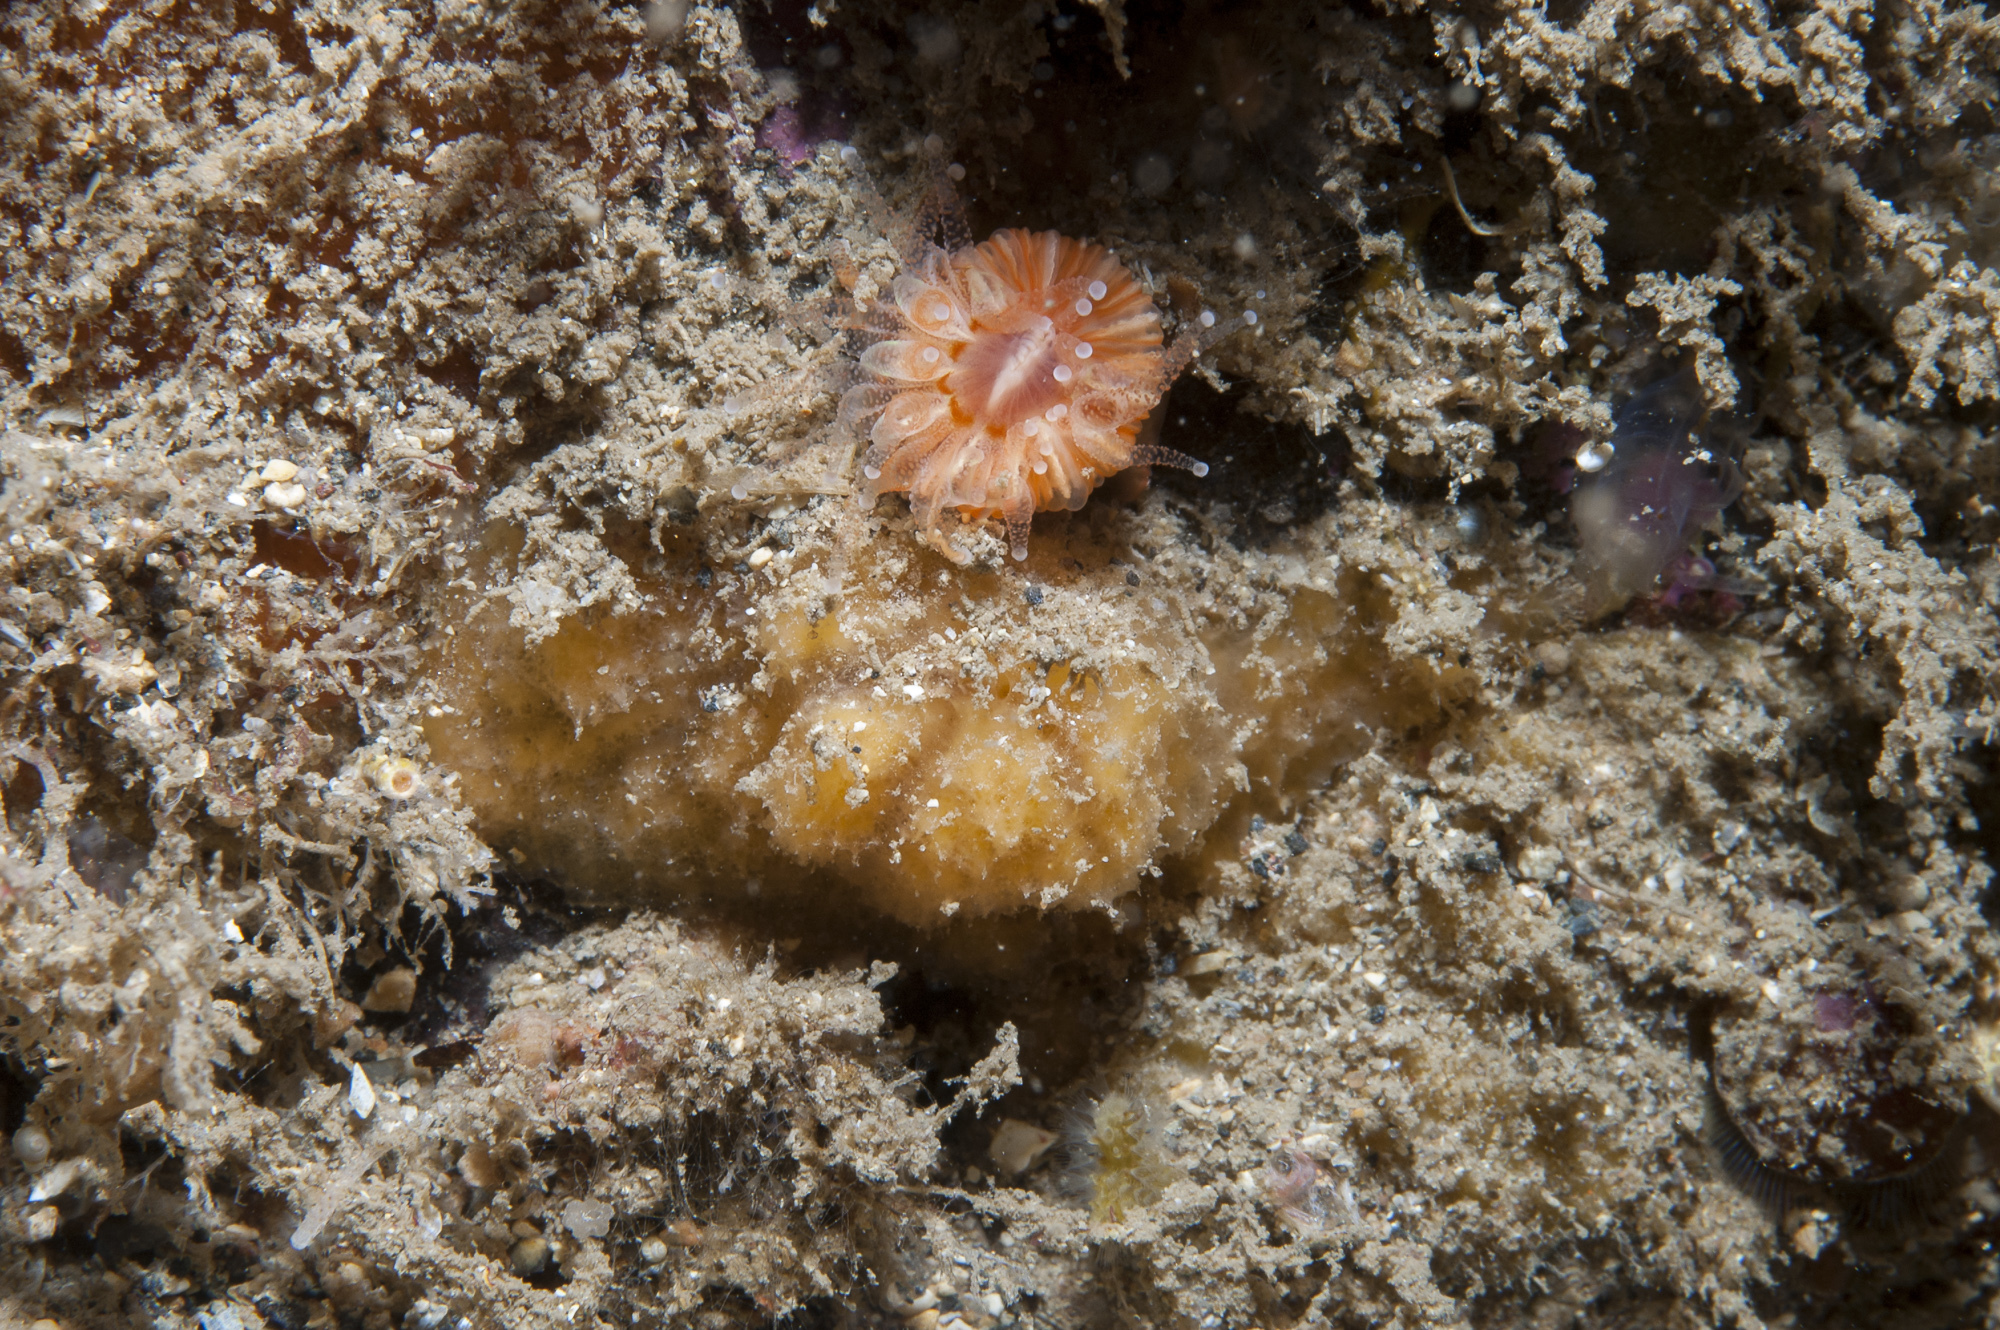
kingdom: Animalia
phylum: Porifera
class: Demospongiae
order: Axinellida
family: Axinellidae
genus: Axinella
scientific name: Axinella parva
